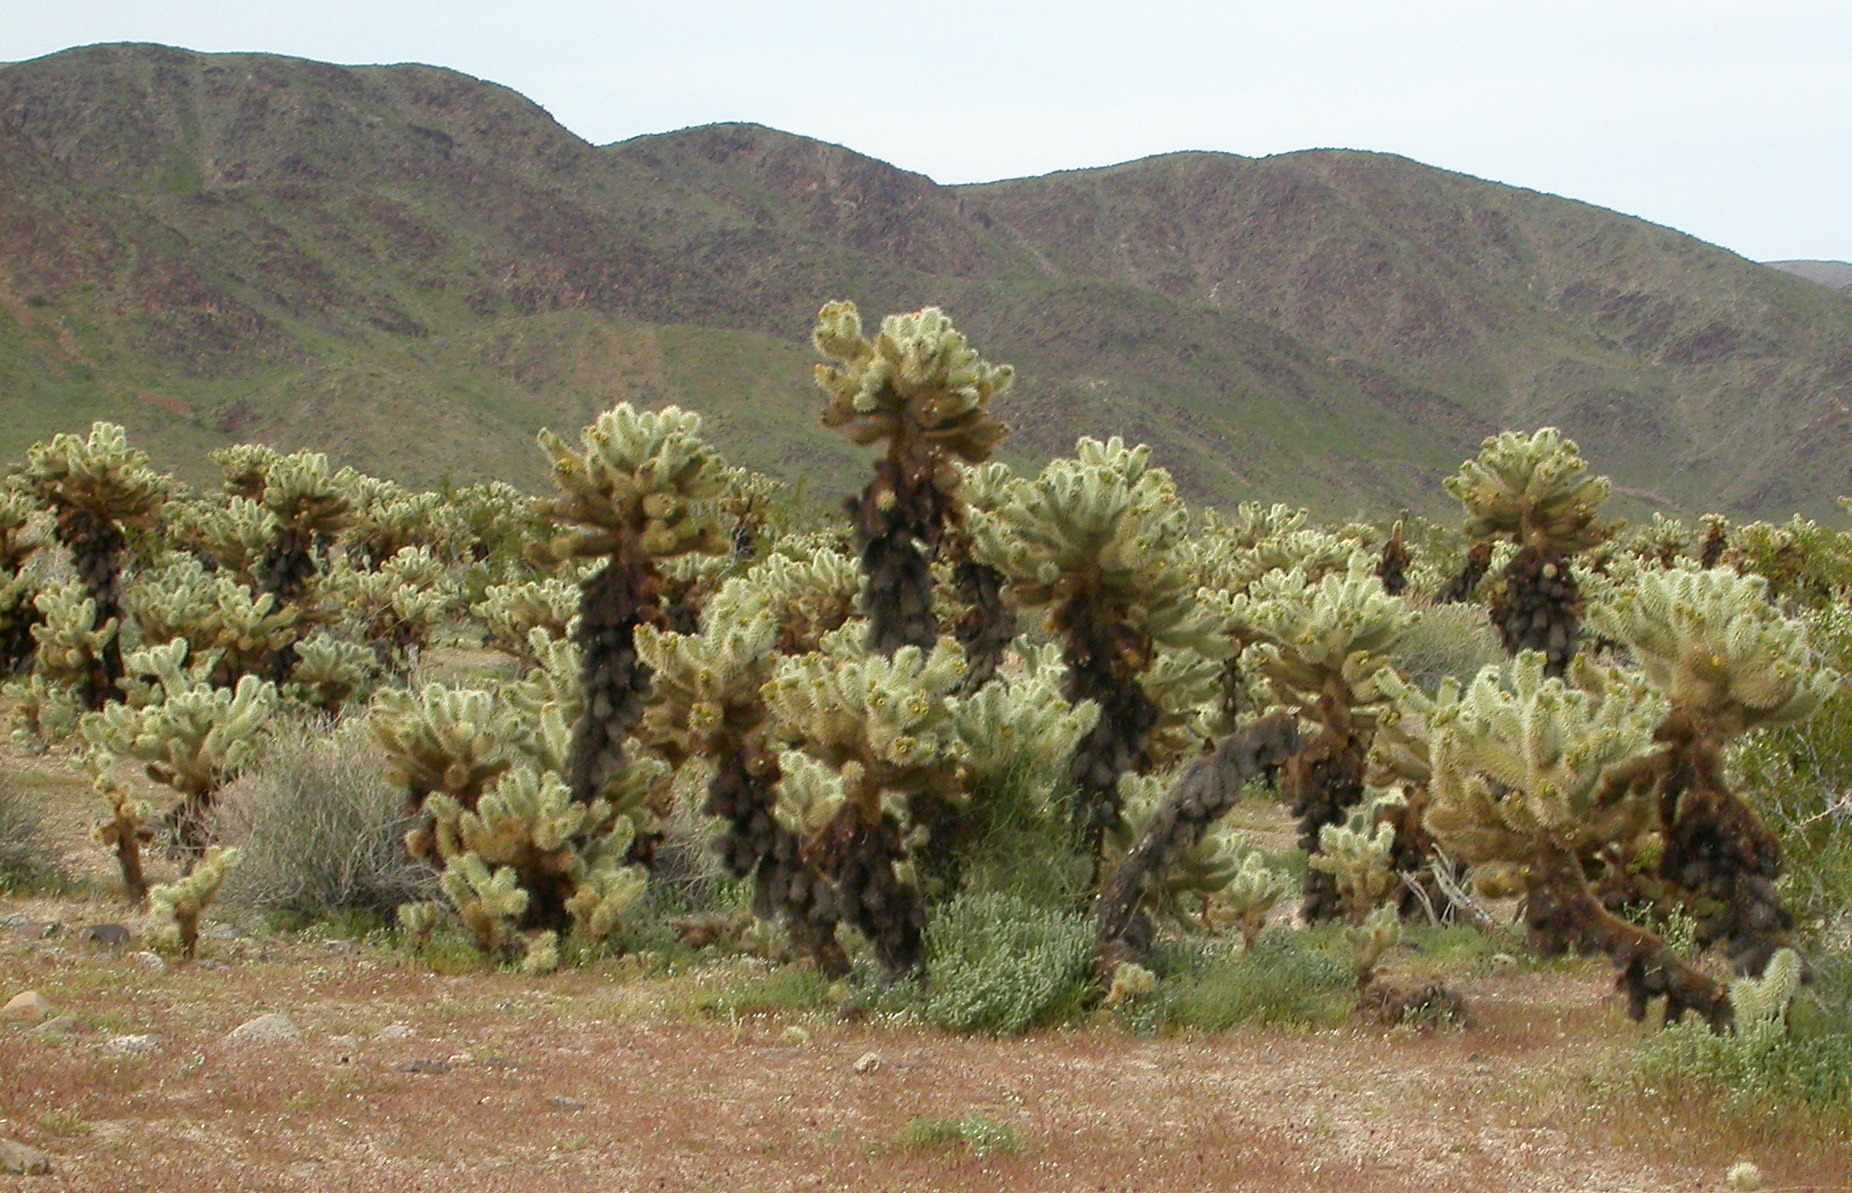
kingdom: Plantae
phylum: Tracheophyta
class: Magnoliopsida
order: Caryophyllales
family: Cactaceae
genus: Cylindropuntia
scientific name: Cylindropuntia fosbergii
